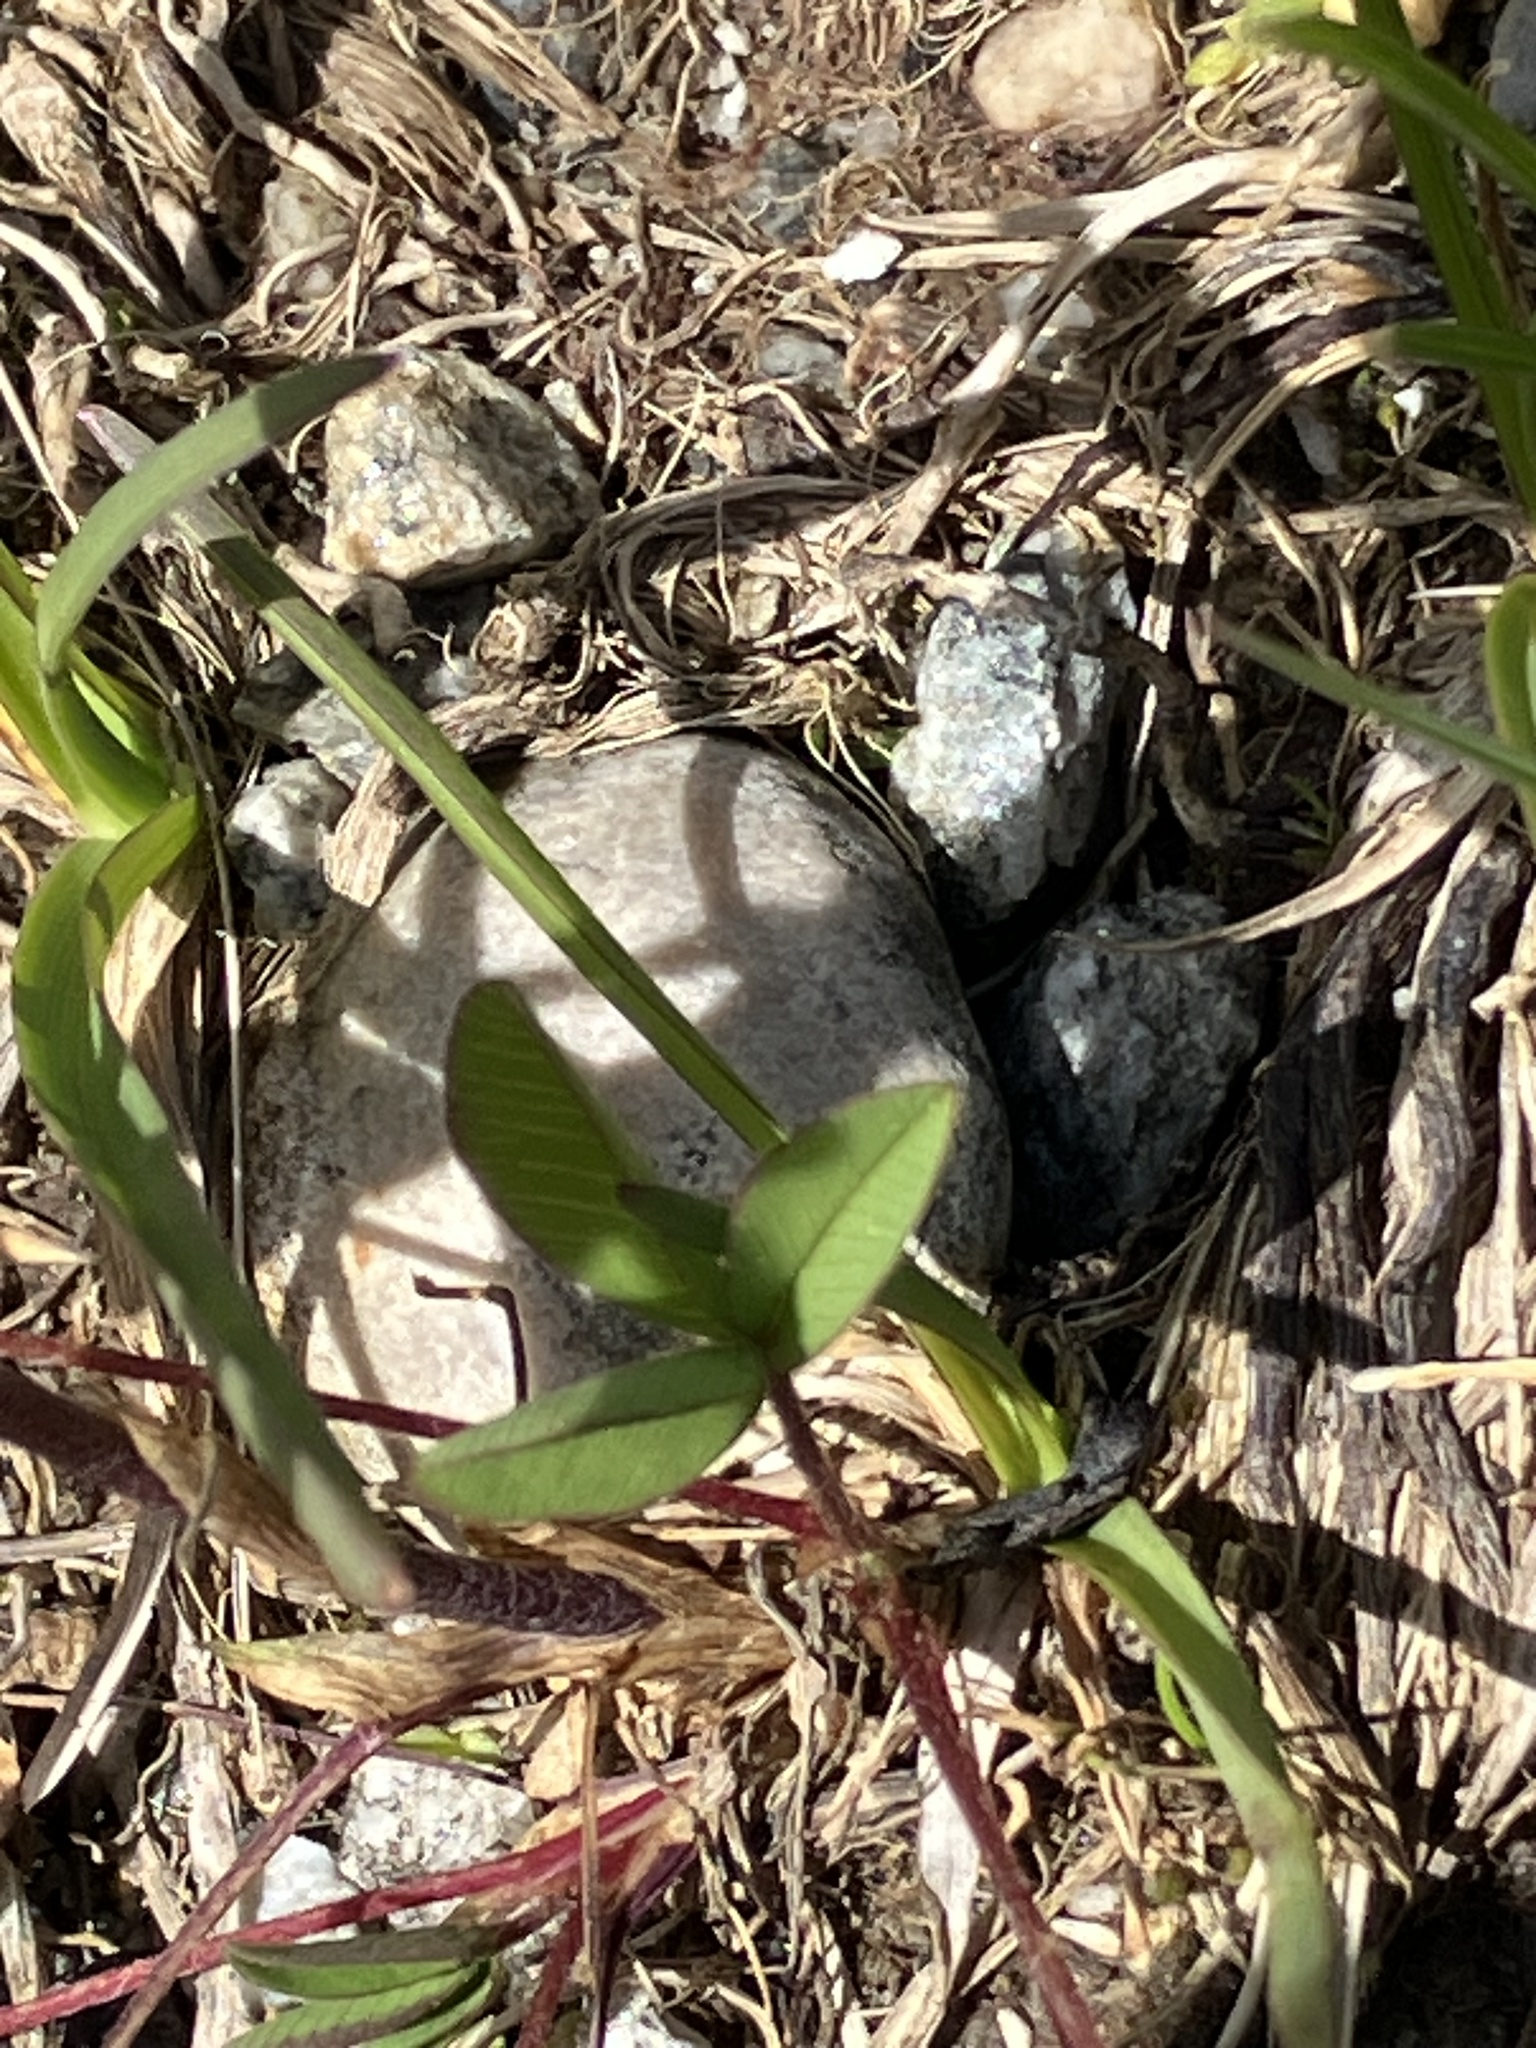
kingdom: Plantae
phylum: Tracheophyta
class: Magnoliopsida
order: Fabales
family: Fabaceae
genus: Trifolium
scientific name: Trifolium badium
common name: Brown clover
